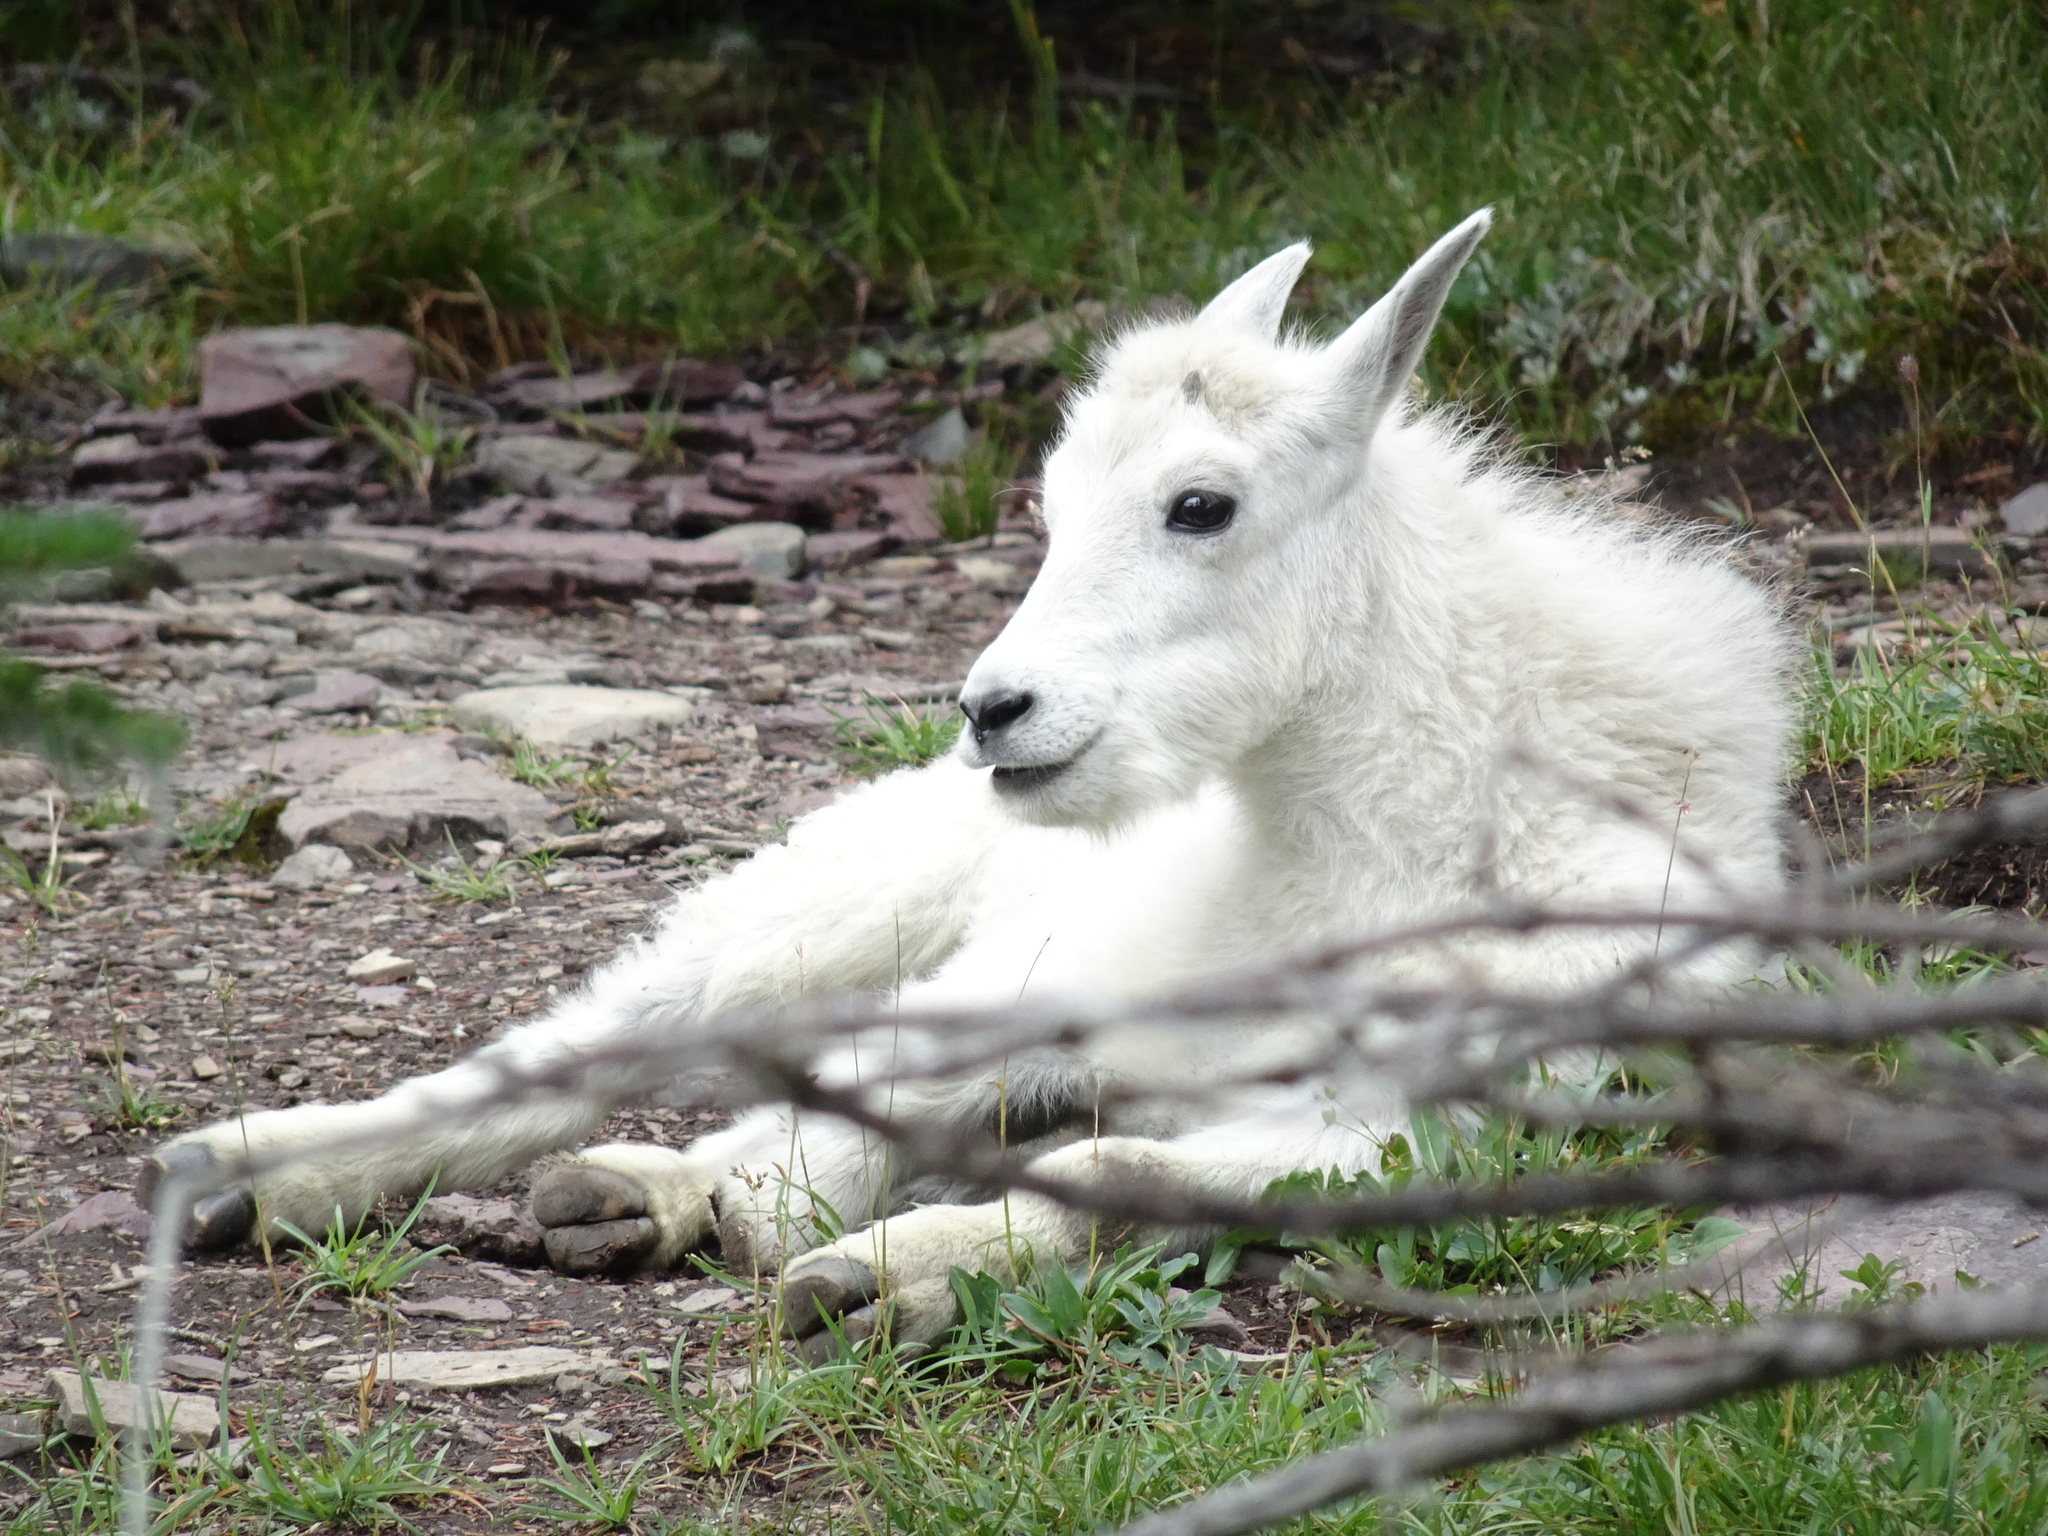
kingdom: Animalia
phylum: Chordata
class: Mammalia
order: Artiodactyla
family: Bovidae
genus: Oreamnos
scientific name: Oreamnos americanus
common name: Mountain goat
